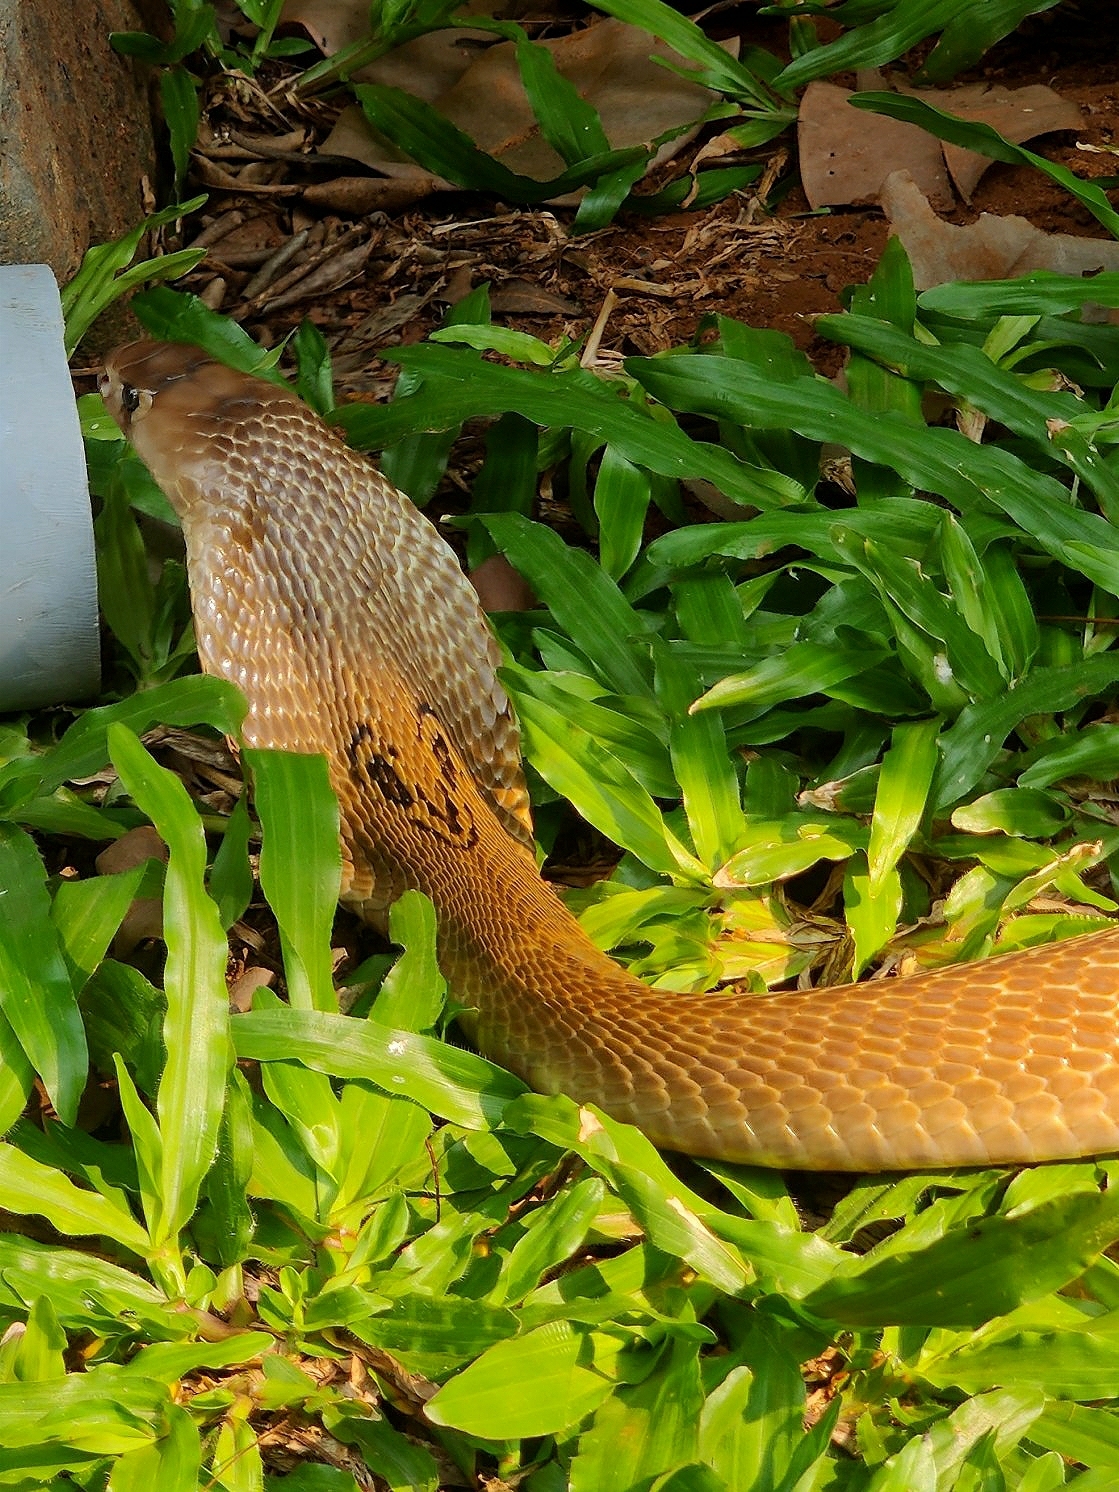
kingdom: Animalia
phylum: Chordata
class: Squamata
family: Elapidae
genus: Naja
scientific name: Naja naja
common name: Indian cobra
